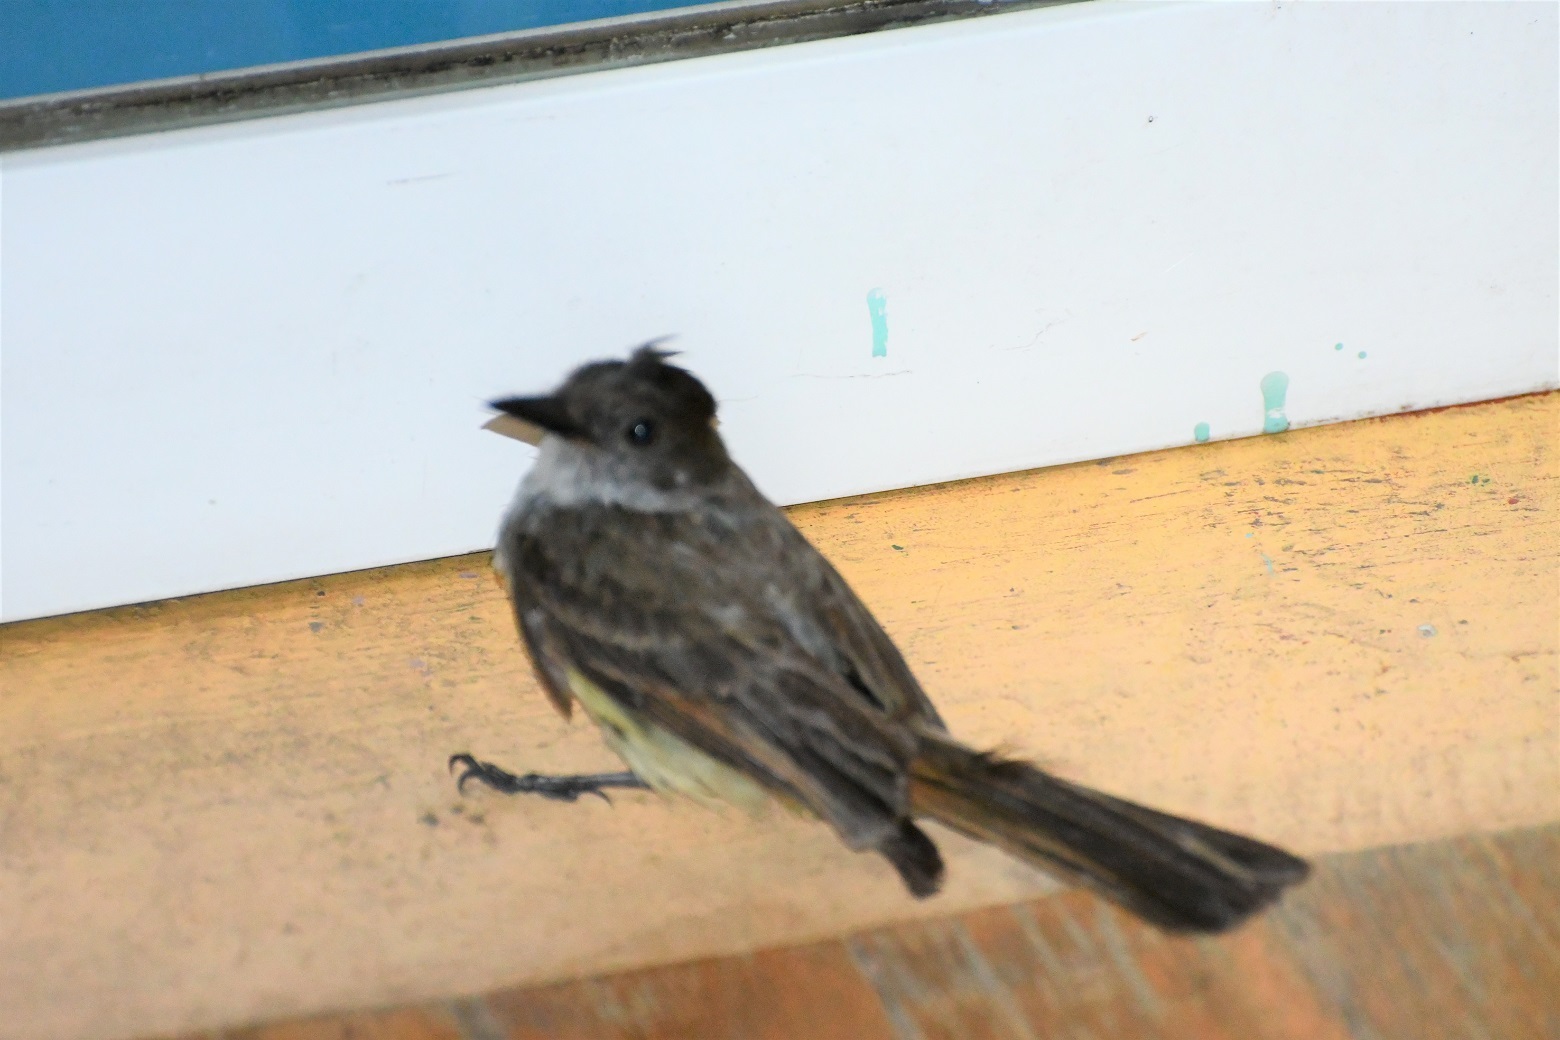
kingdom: Animalia
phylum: Chordata
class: Aves
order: Passeriformes
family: Tyrannidae
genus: Myiarchus
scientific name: Myiarchus tuberculifer
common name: Dusky-capped flycatcher
